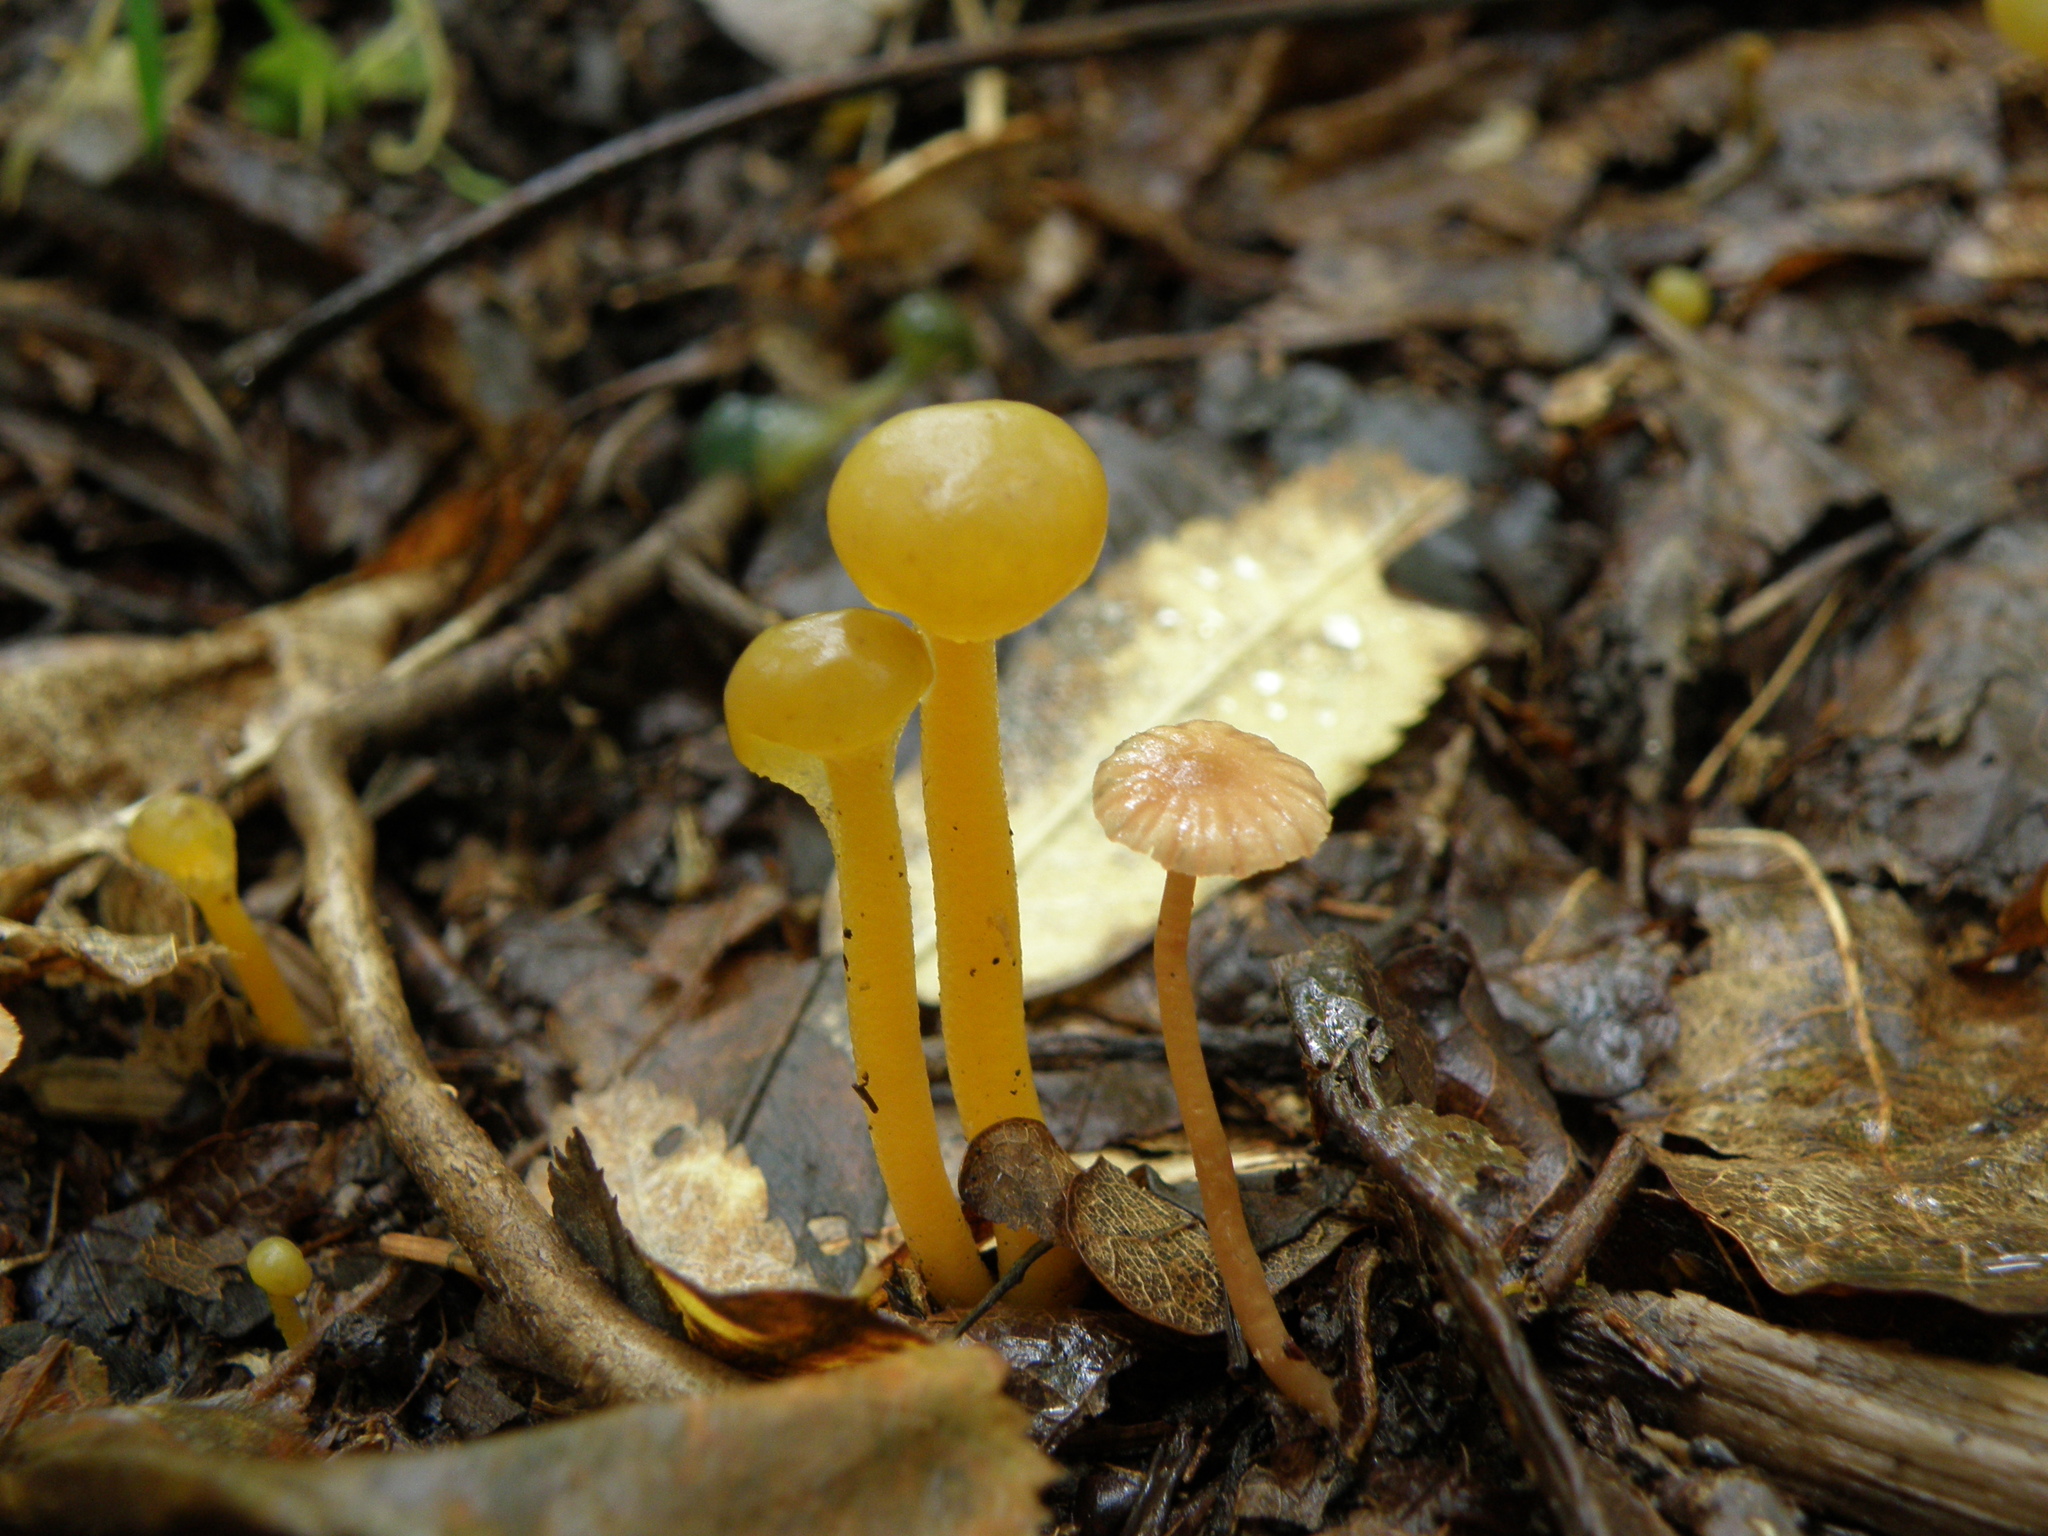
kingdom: Fungi
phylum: Ascomycota
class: Leotiomycetes
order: Leotiales
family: Leotiaceae
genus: Leotia
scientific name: Leotia lubrica
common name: Jellybaby
